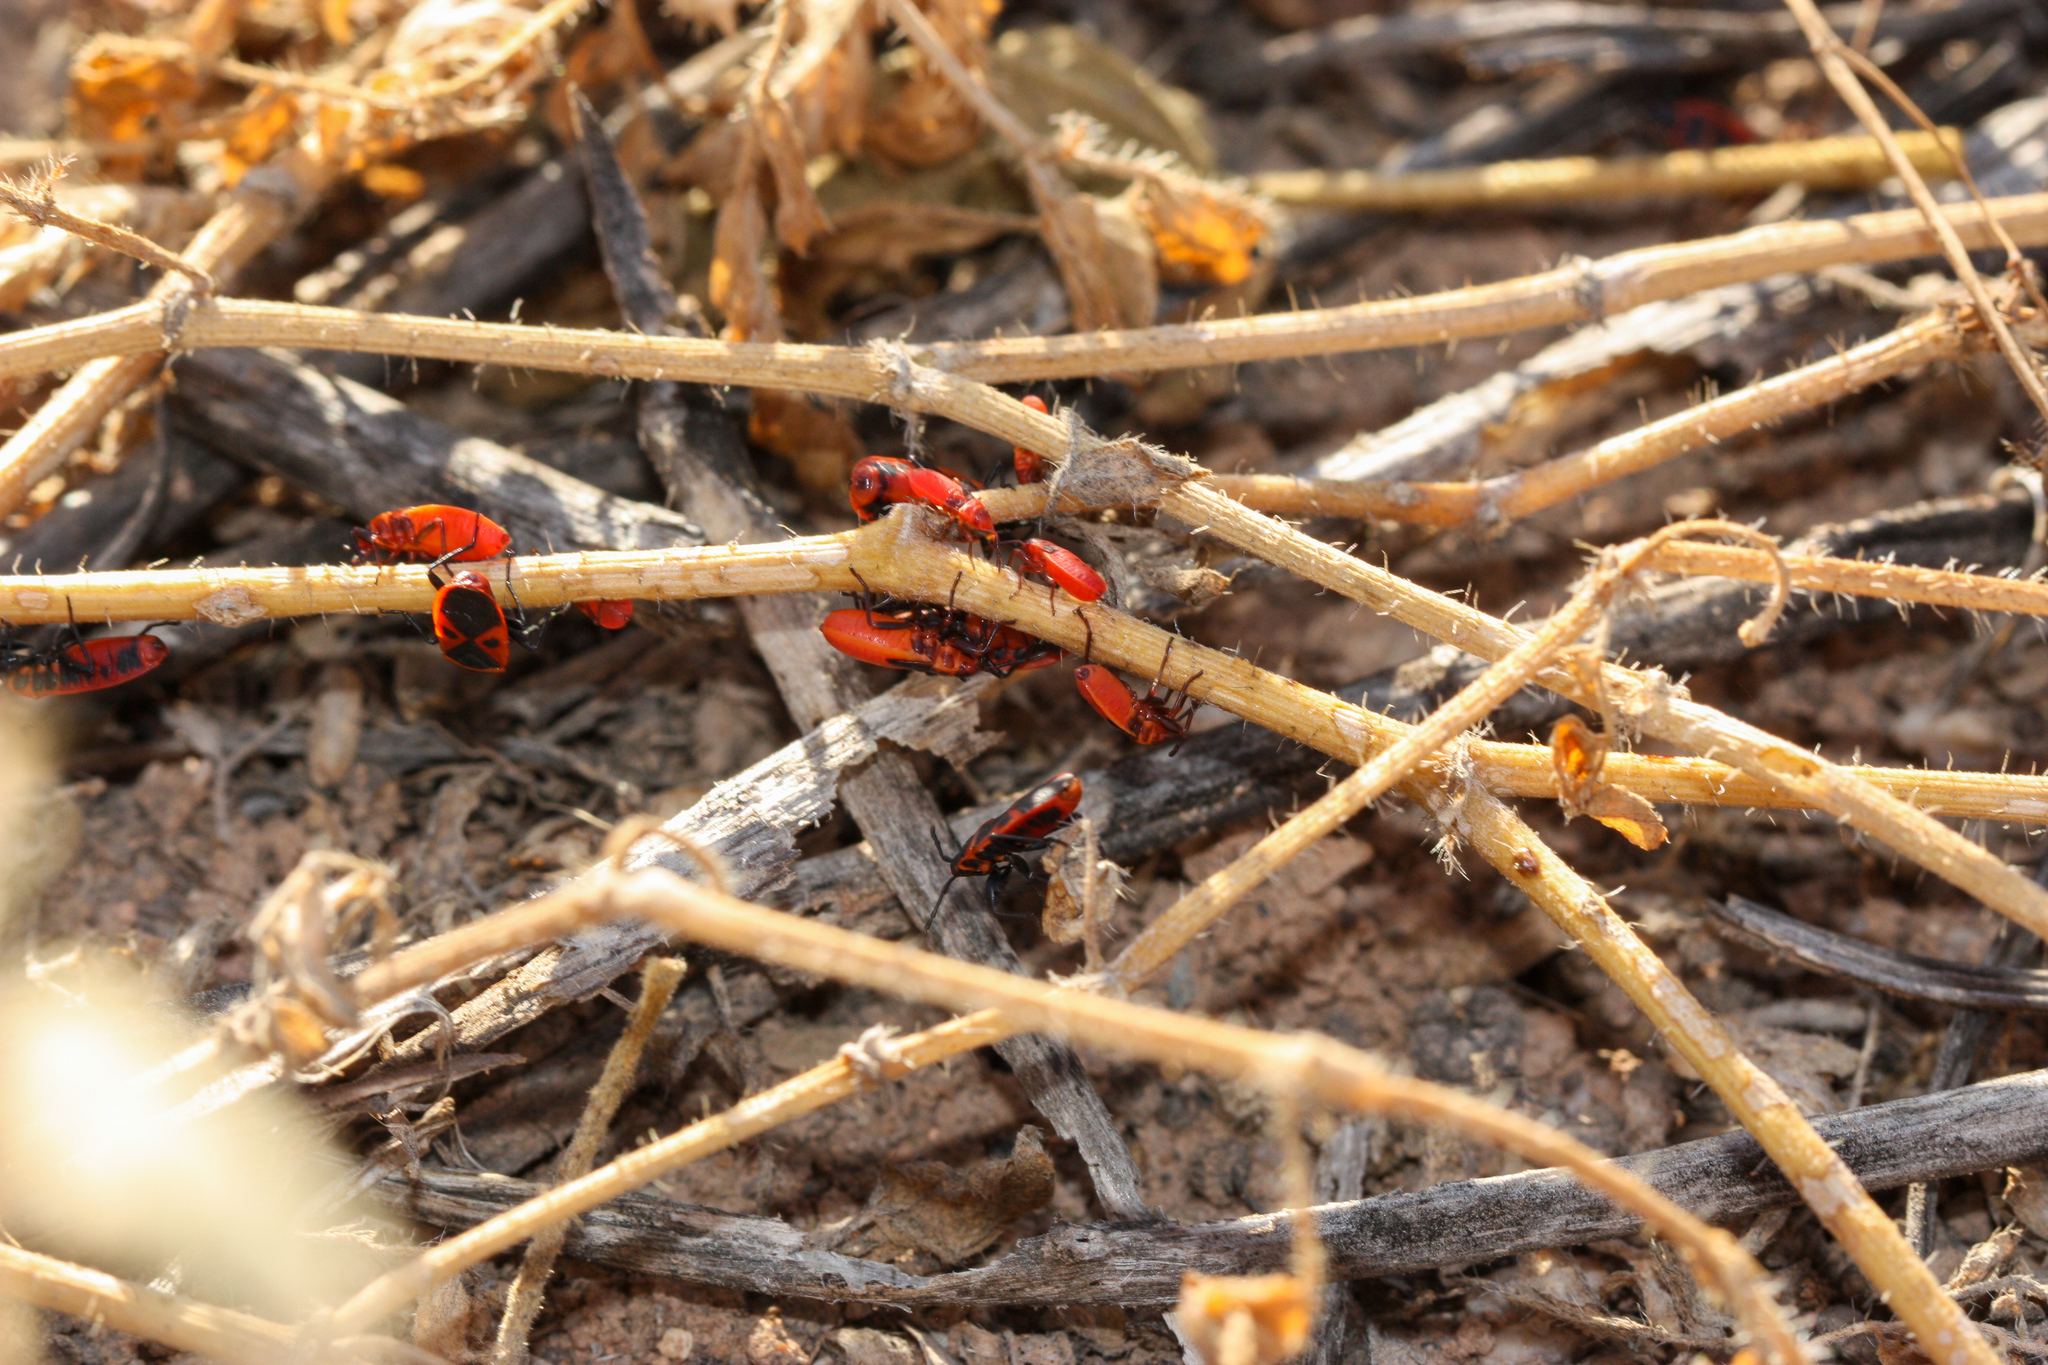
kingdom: Animalia
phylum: Arthropoda
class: Insecta
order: Hemiptera
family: Pyrrhocoridae
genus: Scantius
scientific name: Scantius aegyptius
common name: Red bug
